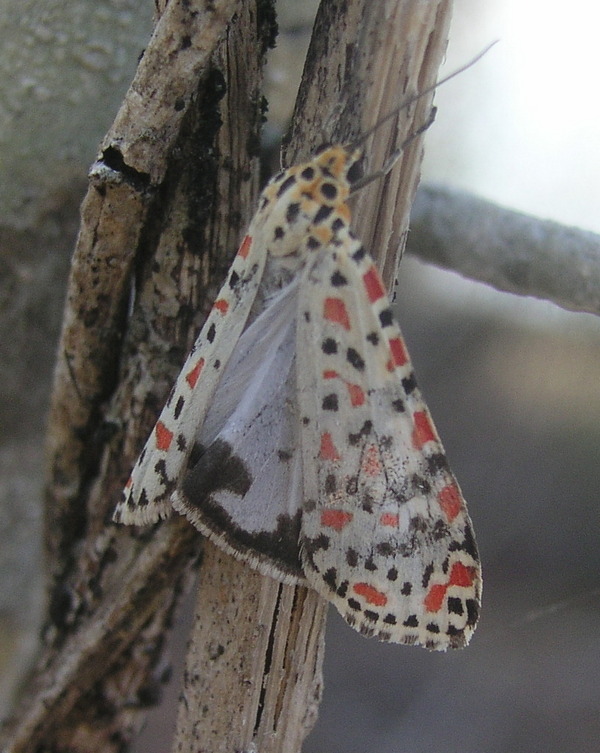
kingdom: Animalia
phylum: Arthropoda
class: Insecta
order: Lepidoptera
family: Erebidae
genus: Utetheisa
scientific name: Utetheisa lotrix
